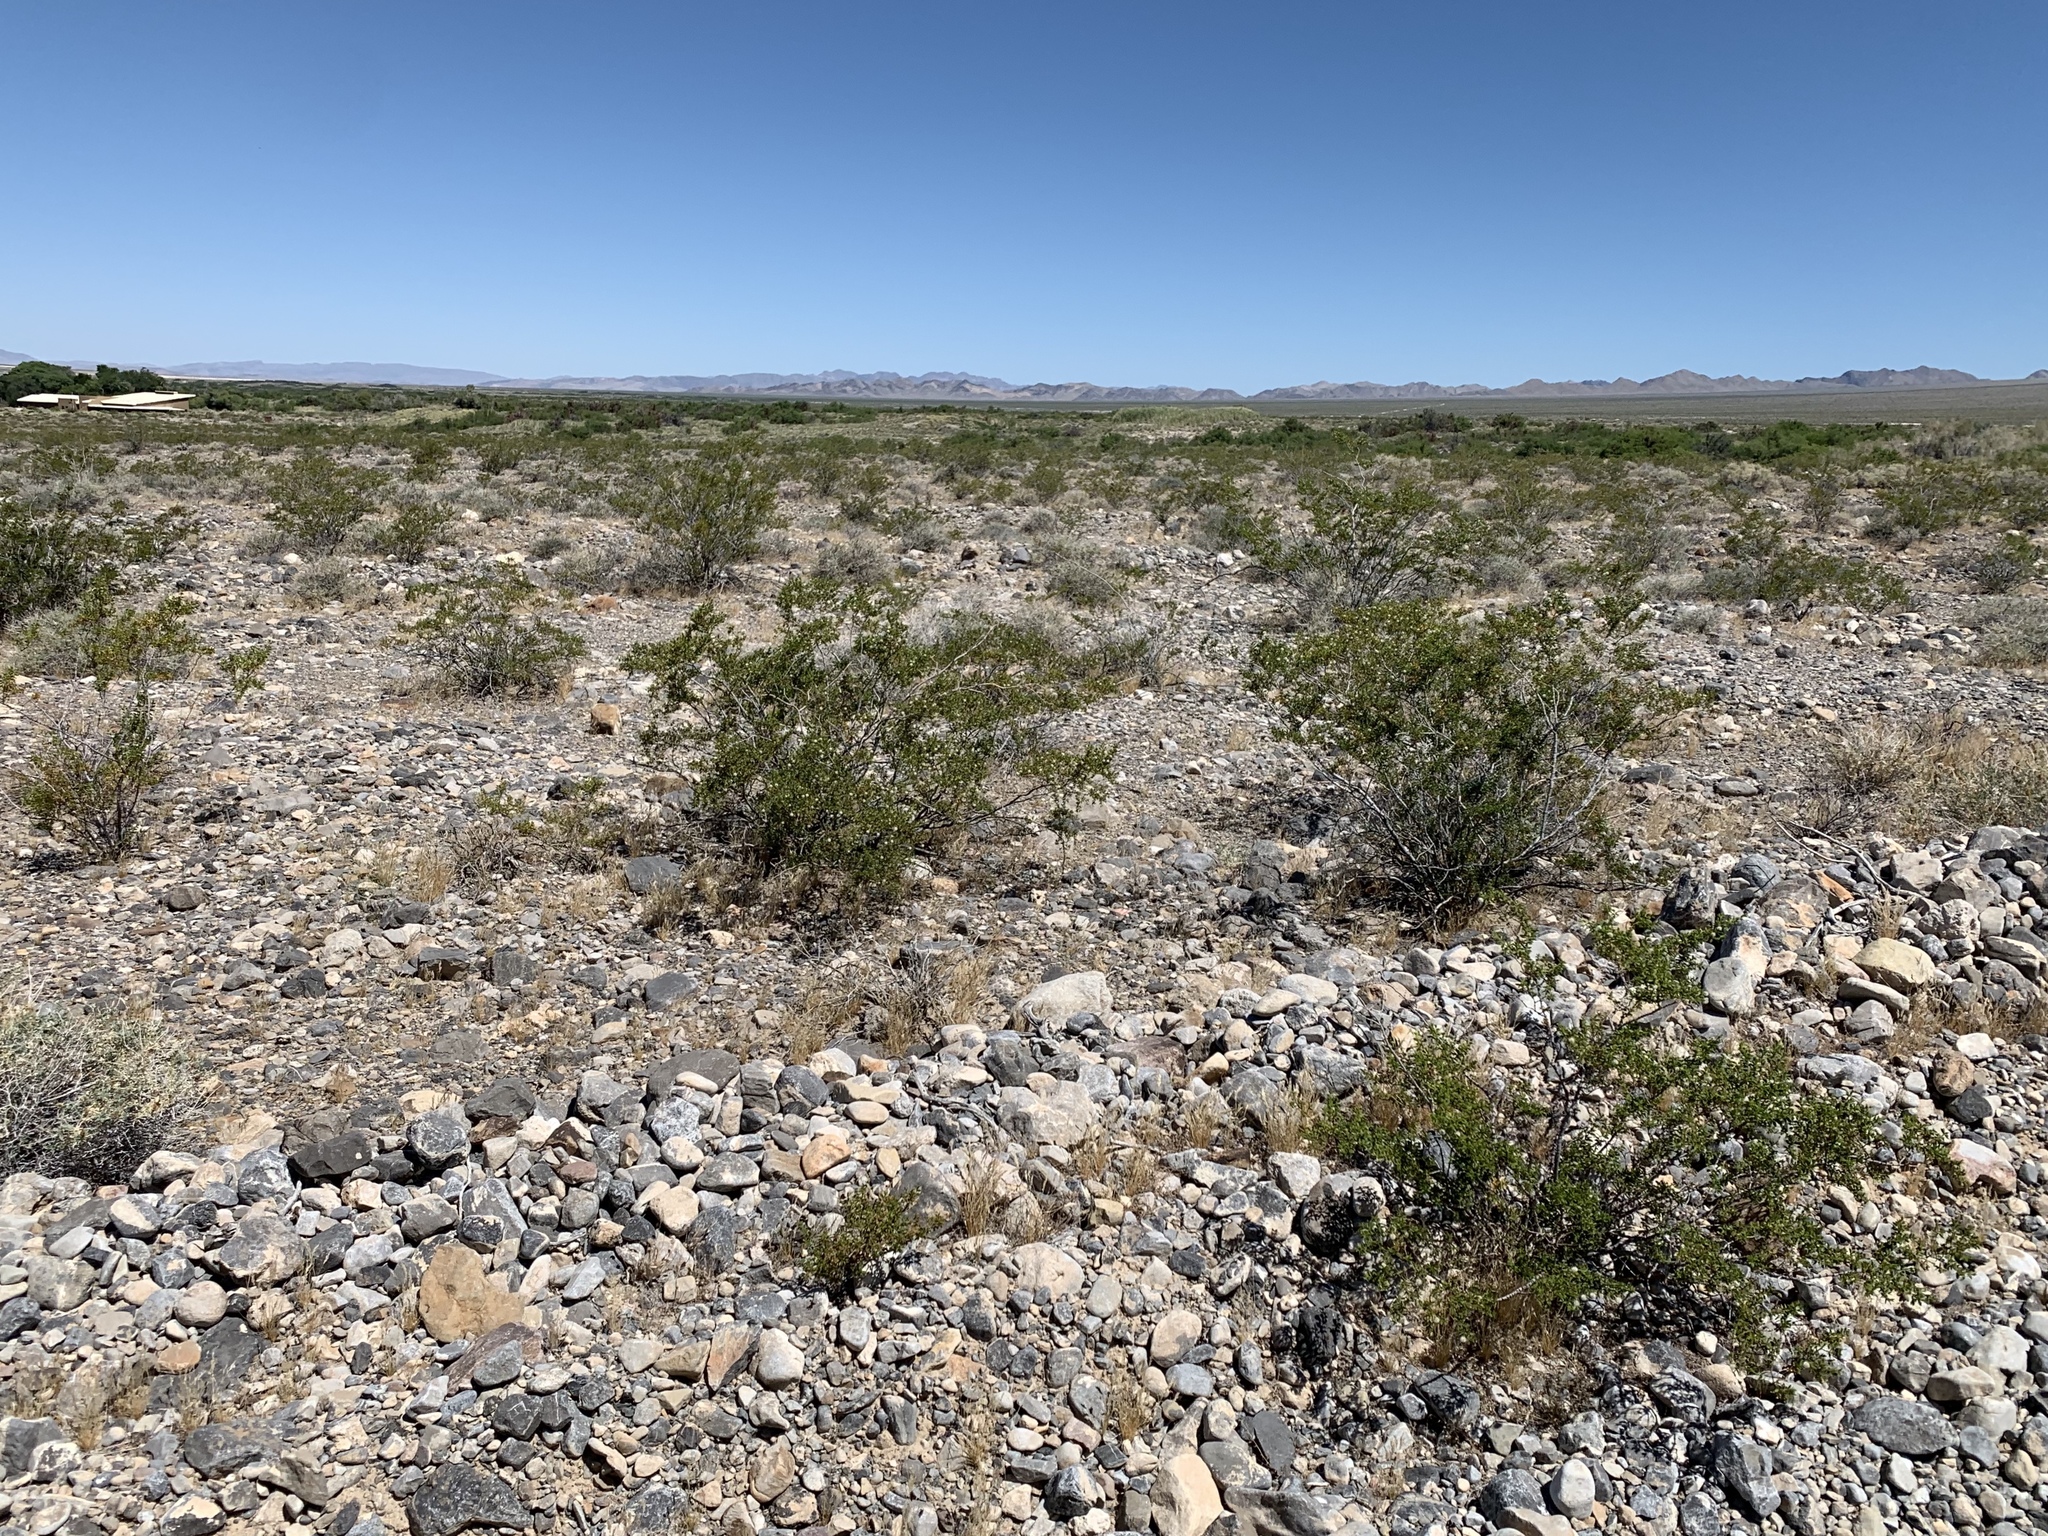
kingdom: Plantae
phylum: Tracheophyta
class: Magnoliopsida
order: Zygophyllales
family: Zygophyllaceae
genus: Larrea
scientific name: Larrea tridentata
